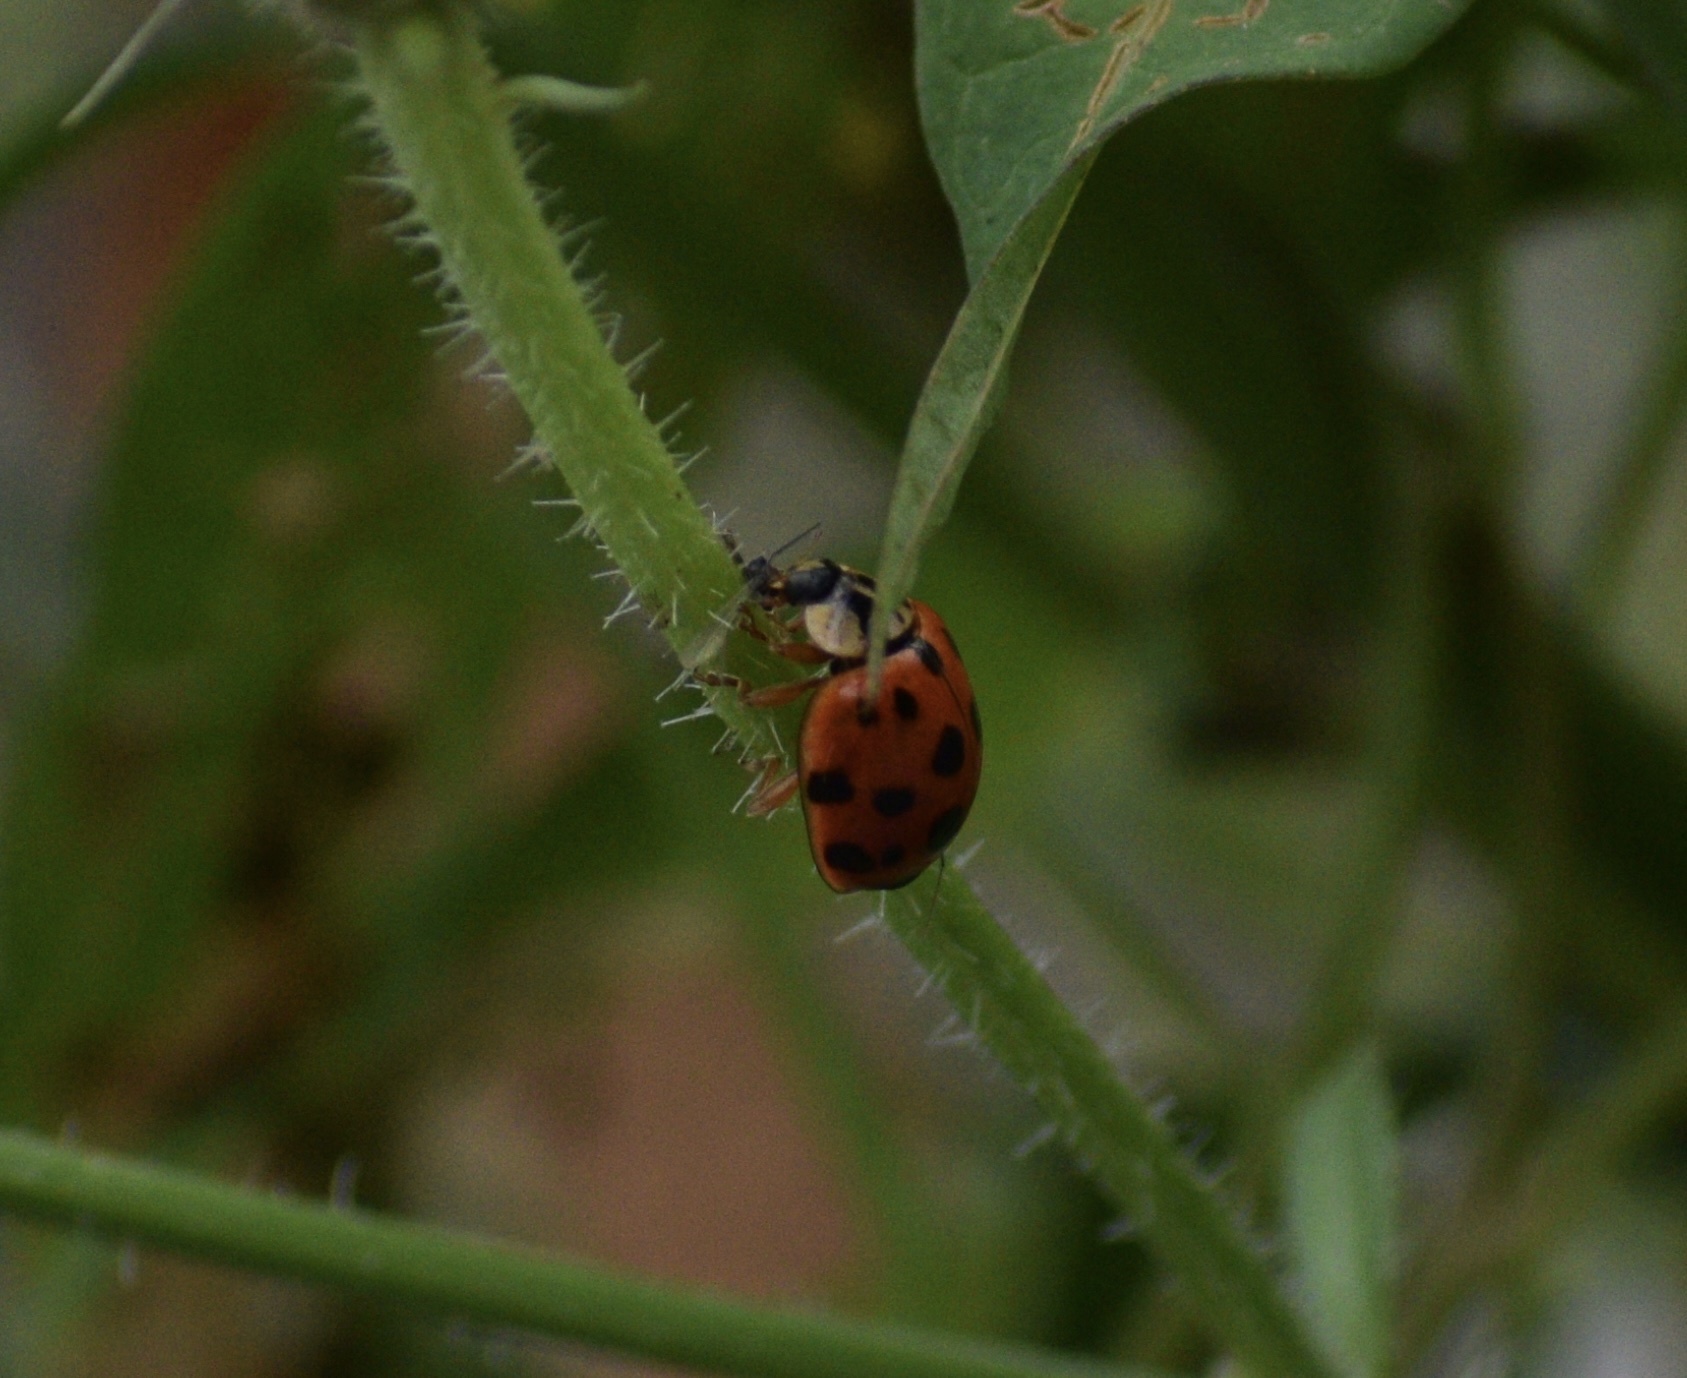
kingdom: Animalia
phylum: Arthropoda
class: Insecta
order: Coleoptera
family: Coccinellidae
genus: Harmonia
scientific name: Harmonia axyridis
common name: Harlequin ladybird
